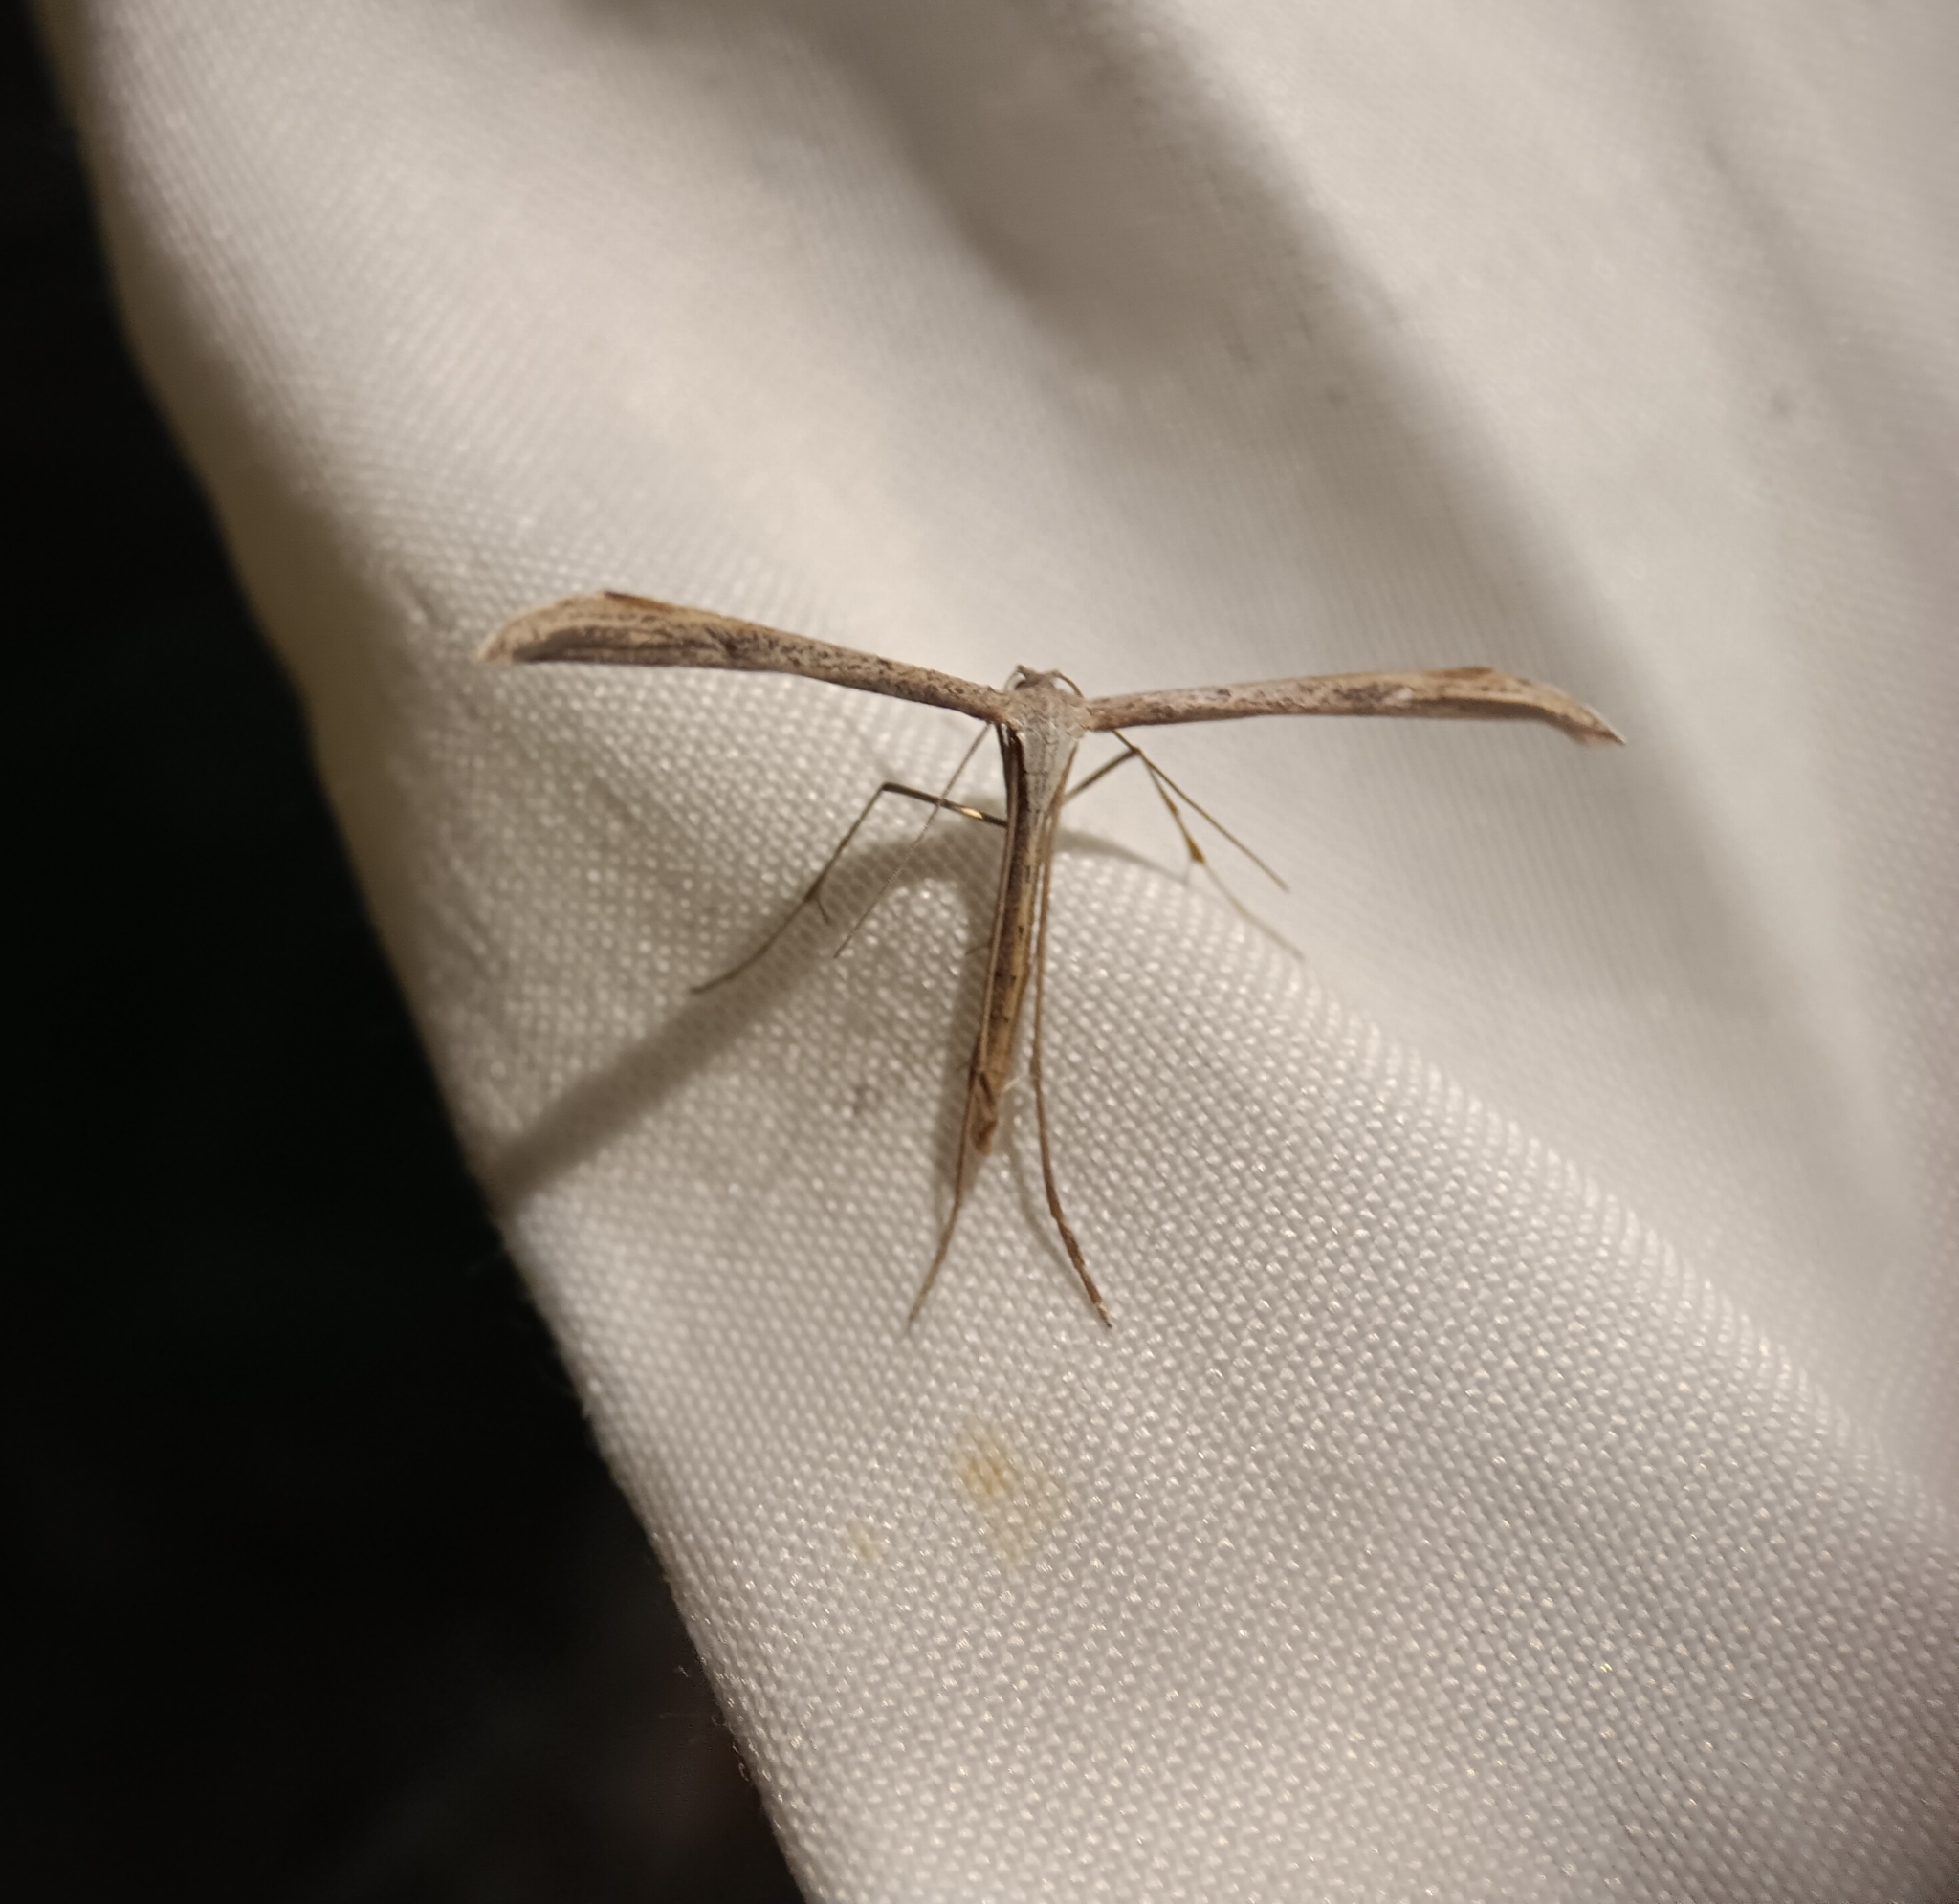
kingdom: Animalia
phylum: Arthropoda
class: Insecta
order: Lepidoptera
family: Pterophoridae
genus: Emmelina
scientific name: Emmelina monodactyla
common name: Common plume
